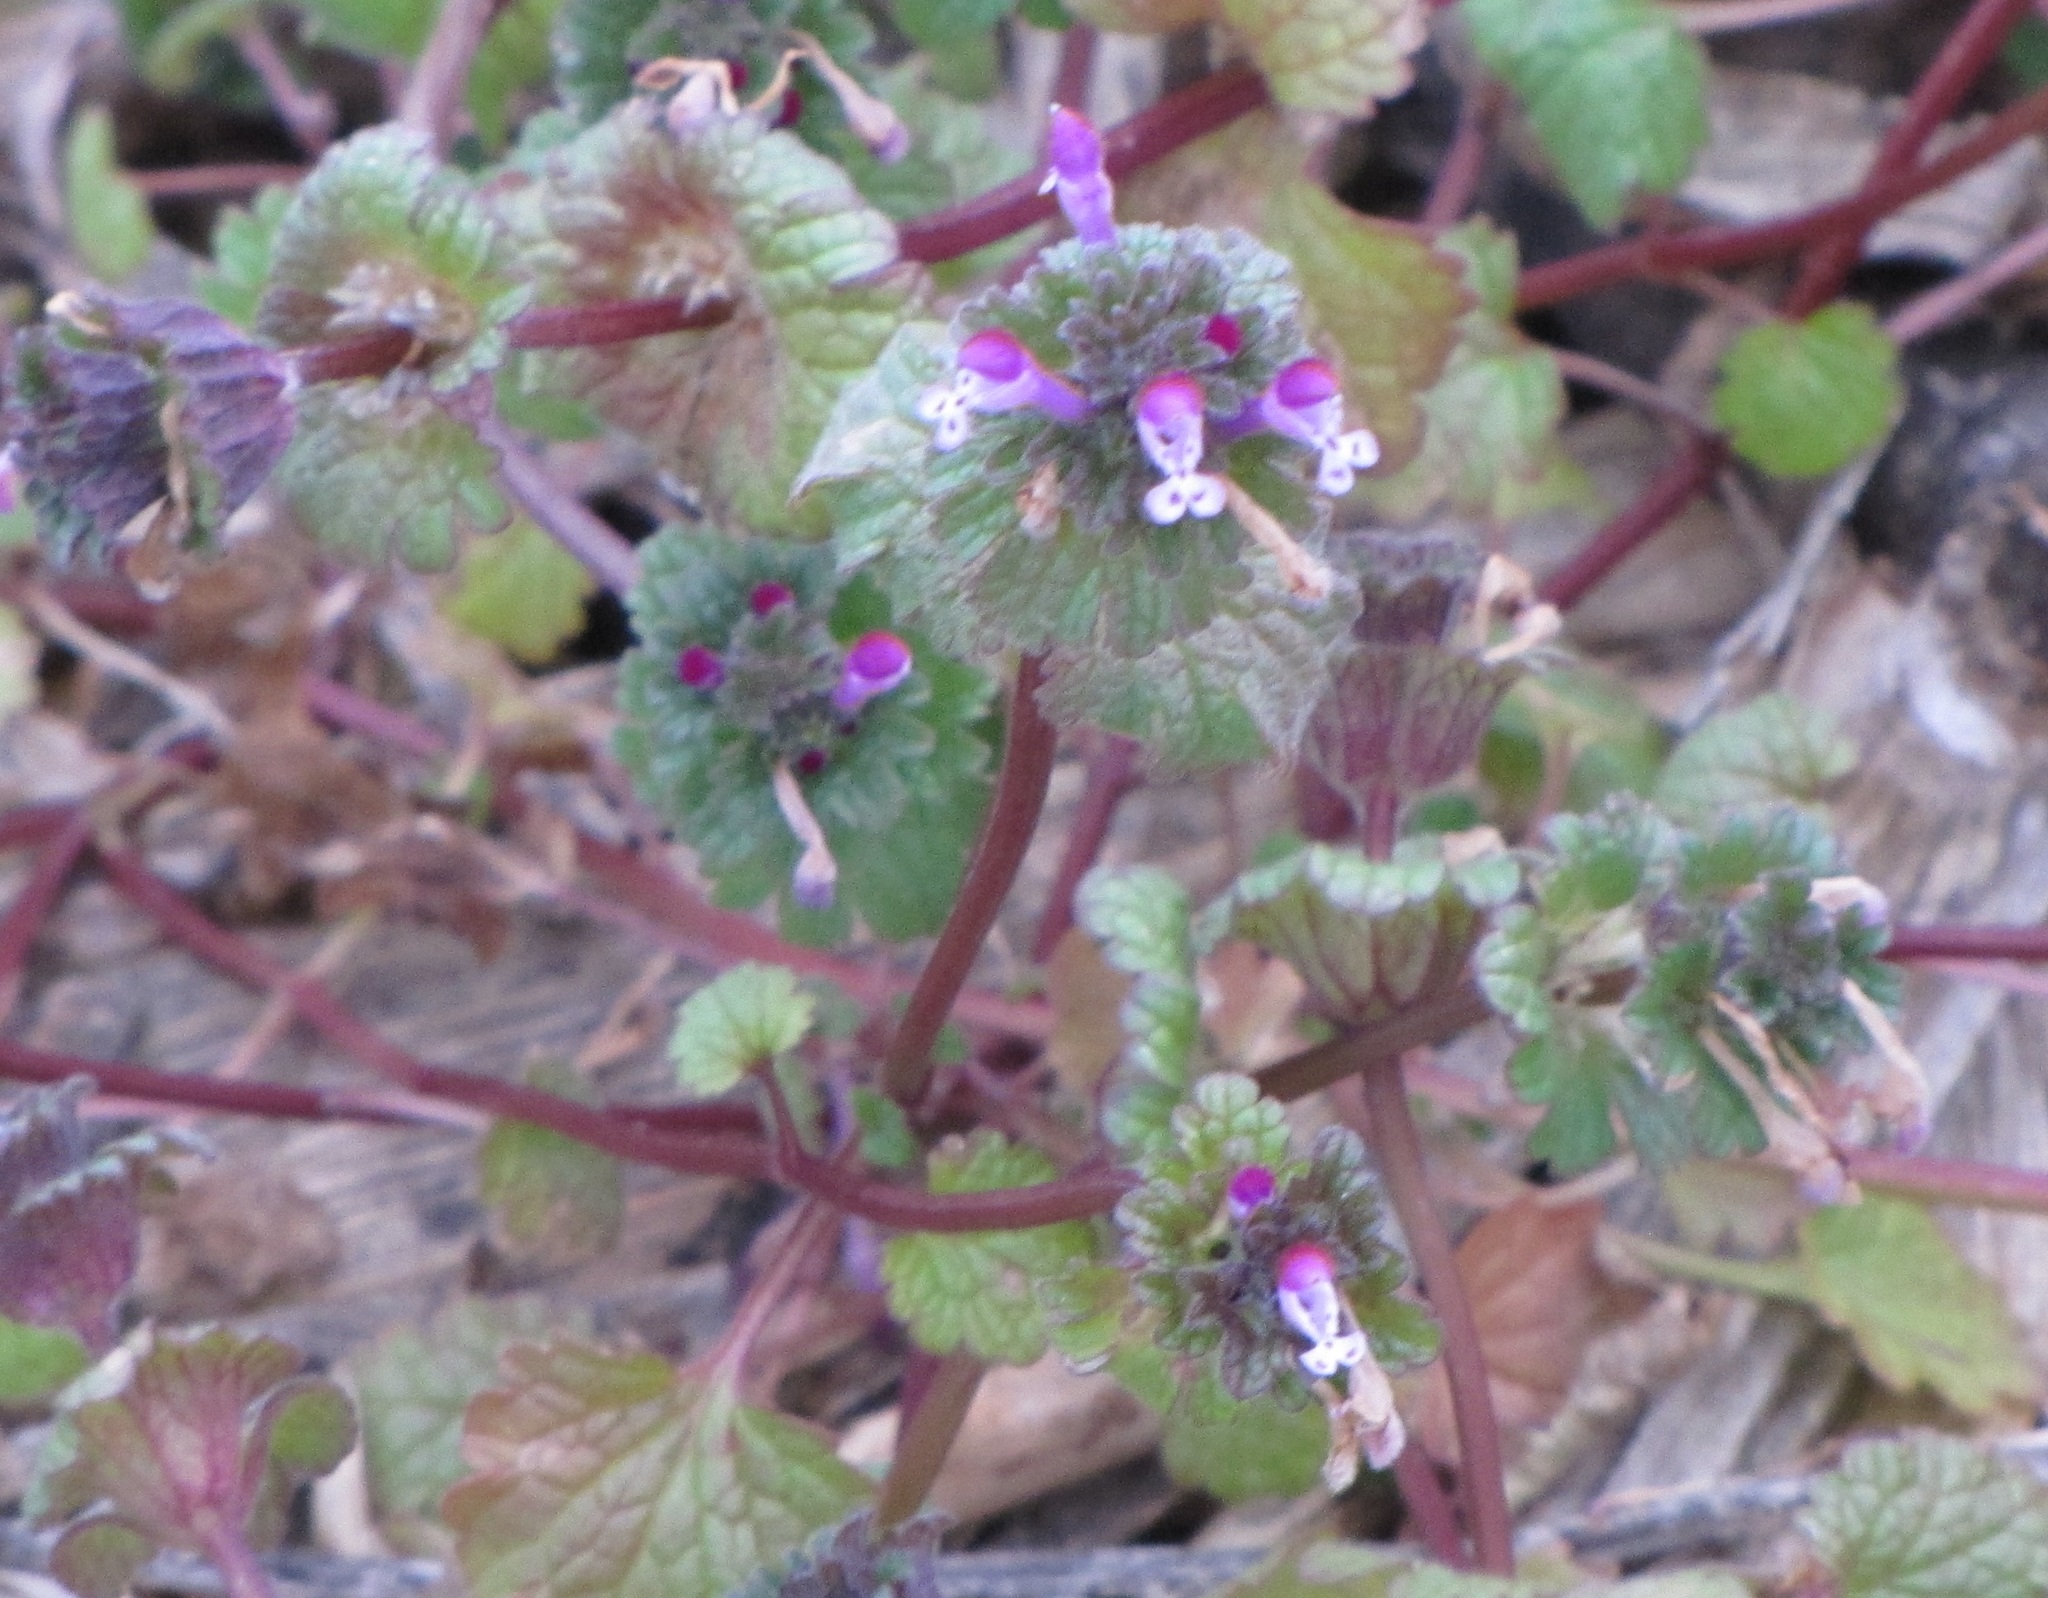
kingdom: Plantae
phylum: Tracheophyta
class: Magnoliopsida
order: Lamiales
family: Lamiaceae
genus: Lamium
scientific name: Lamium amplexicaule
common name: Henbit dead-nettle
